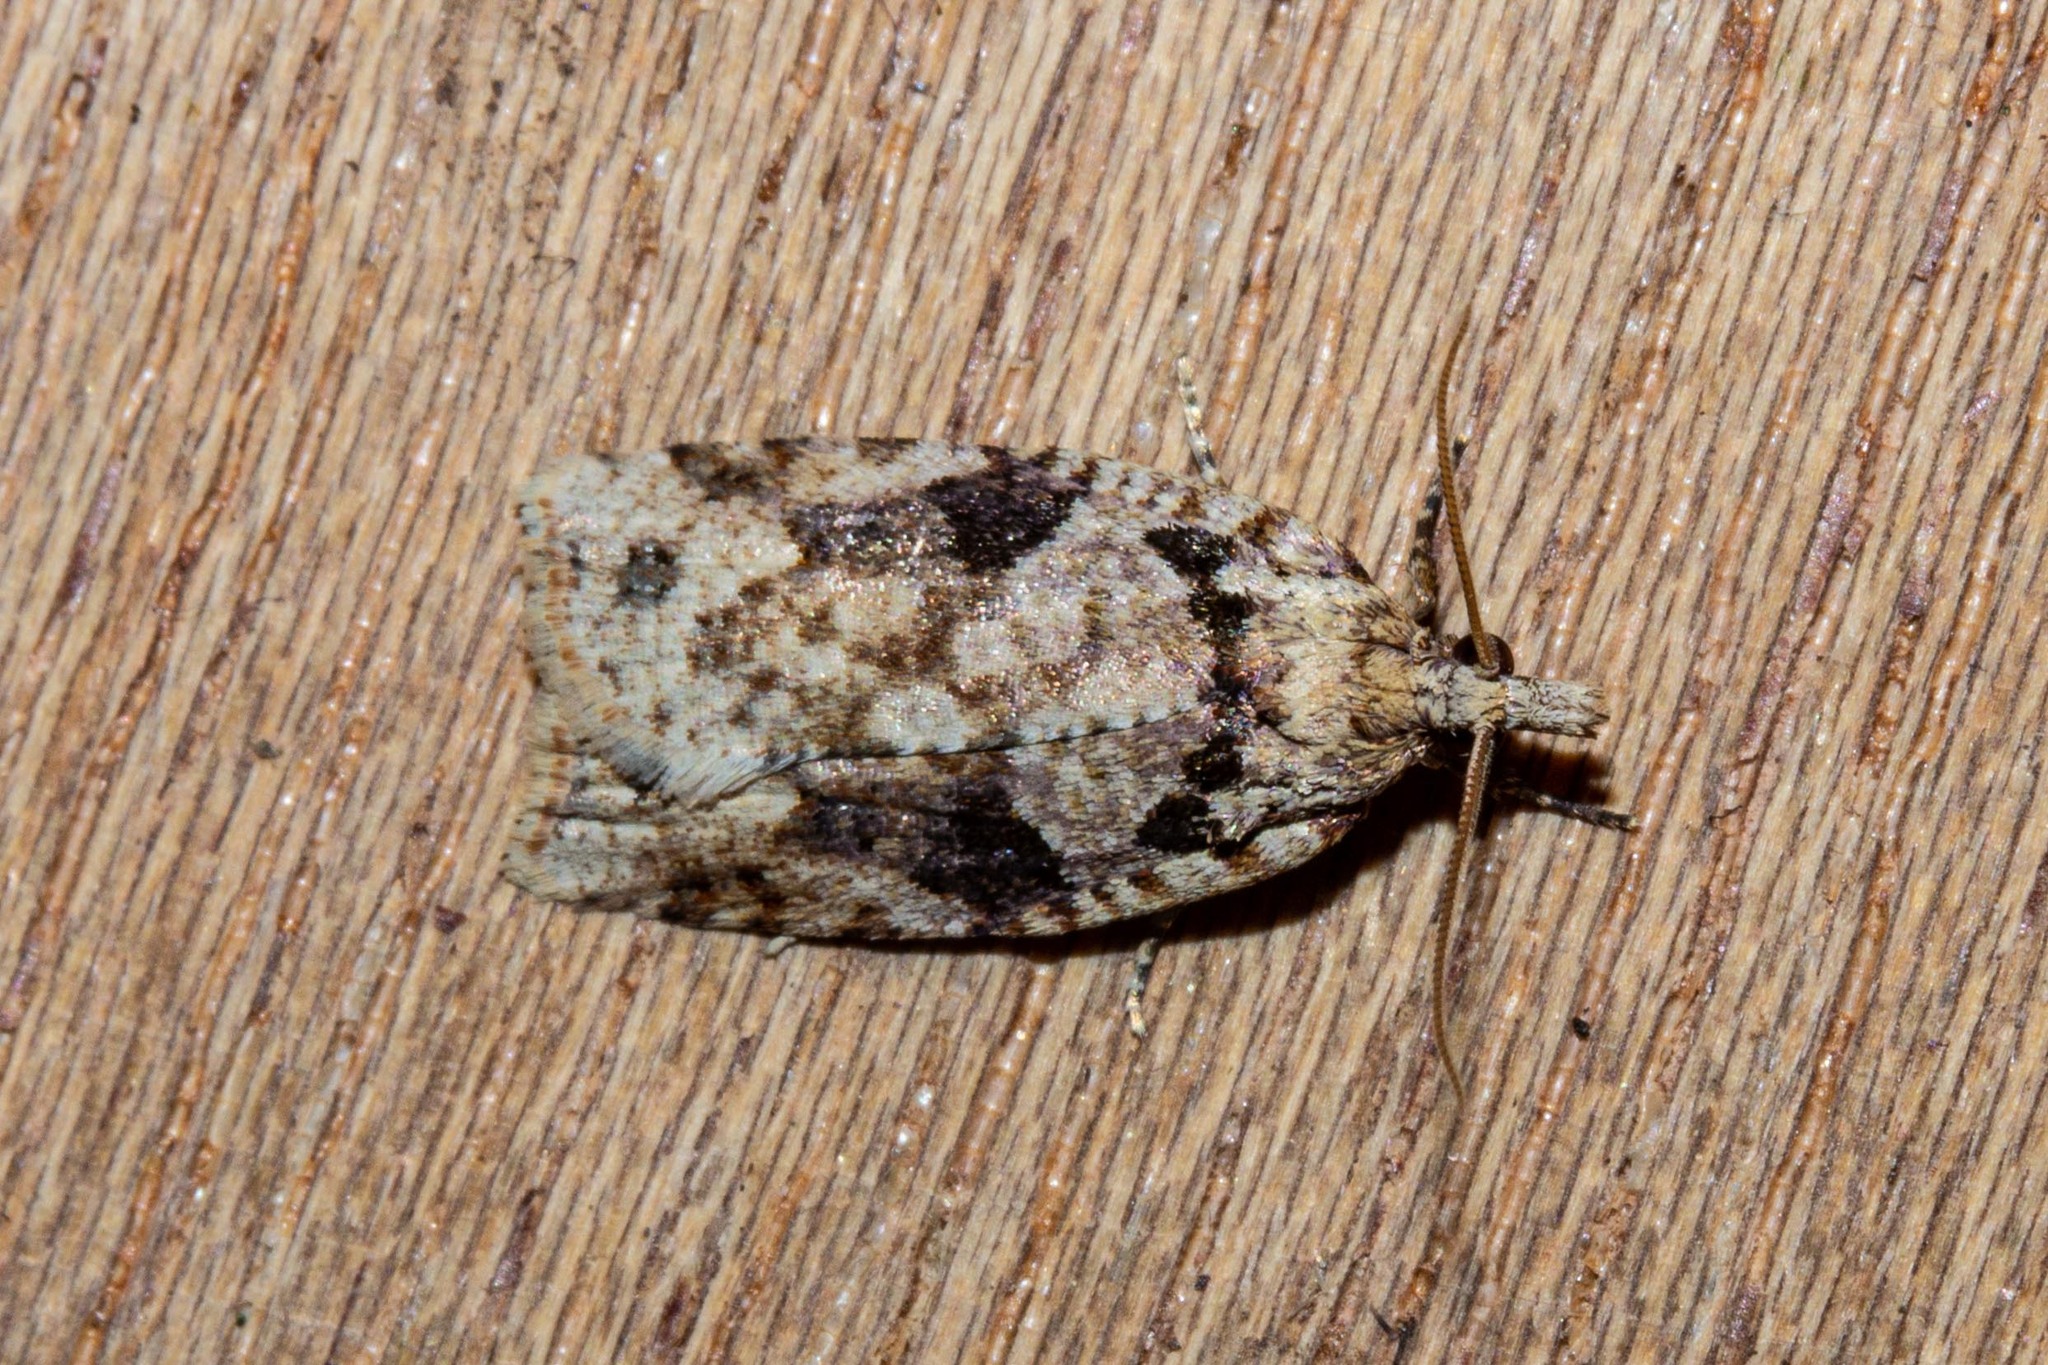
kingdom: Animalia
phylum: Arthropoda
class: Insecta
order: Lepidoptera
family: Tortricidae
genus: Ctenopseustis
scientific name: Ctenopseustis obliquana
